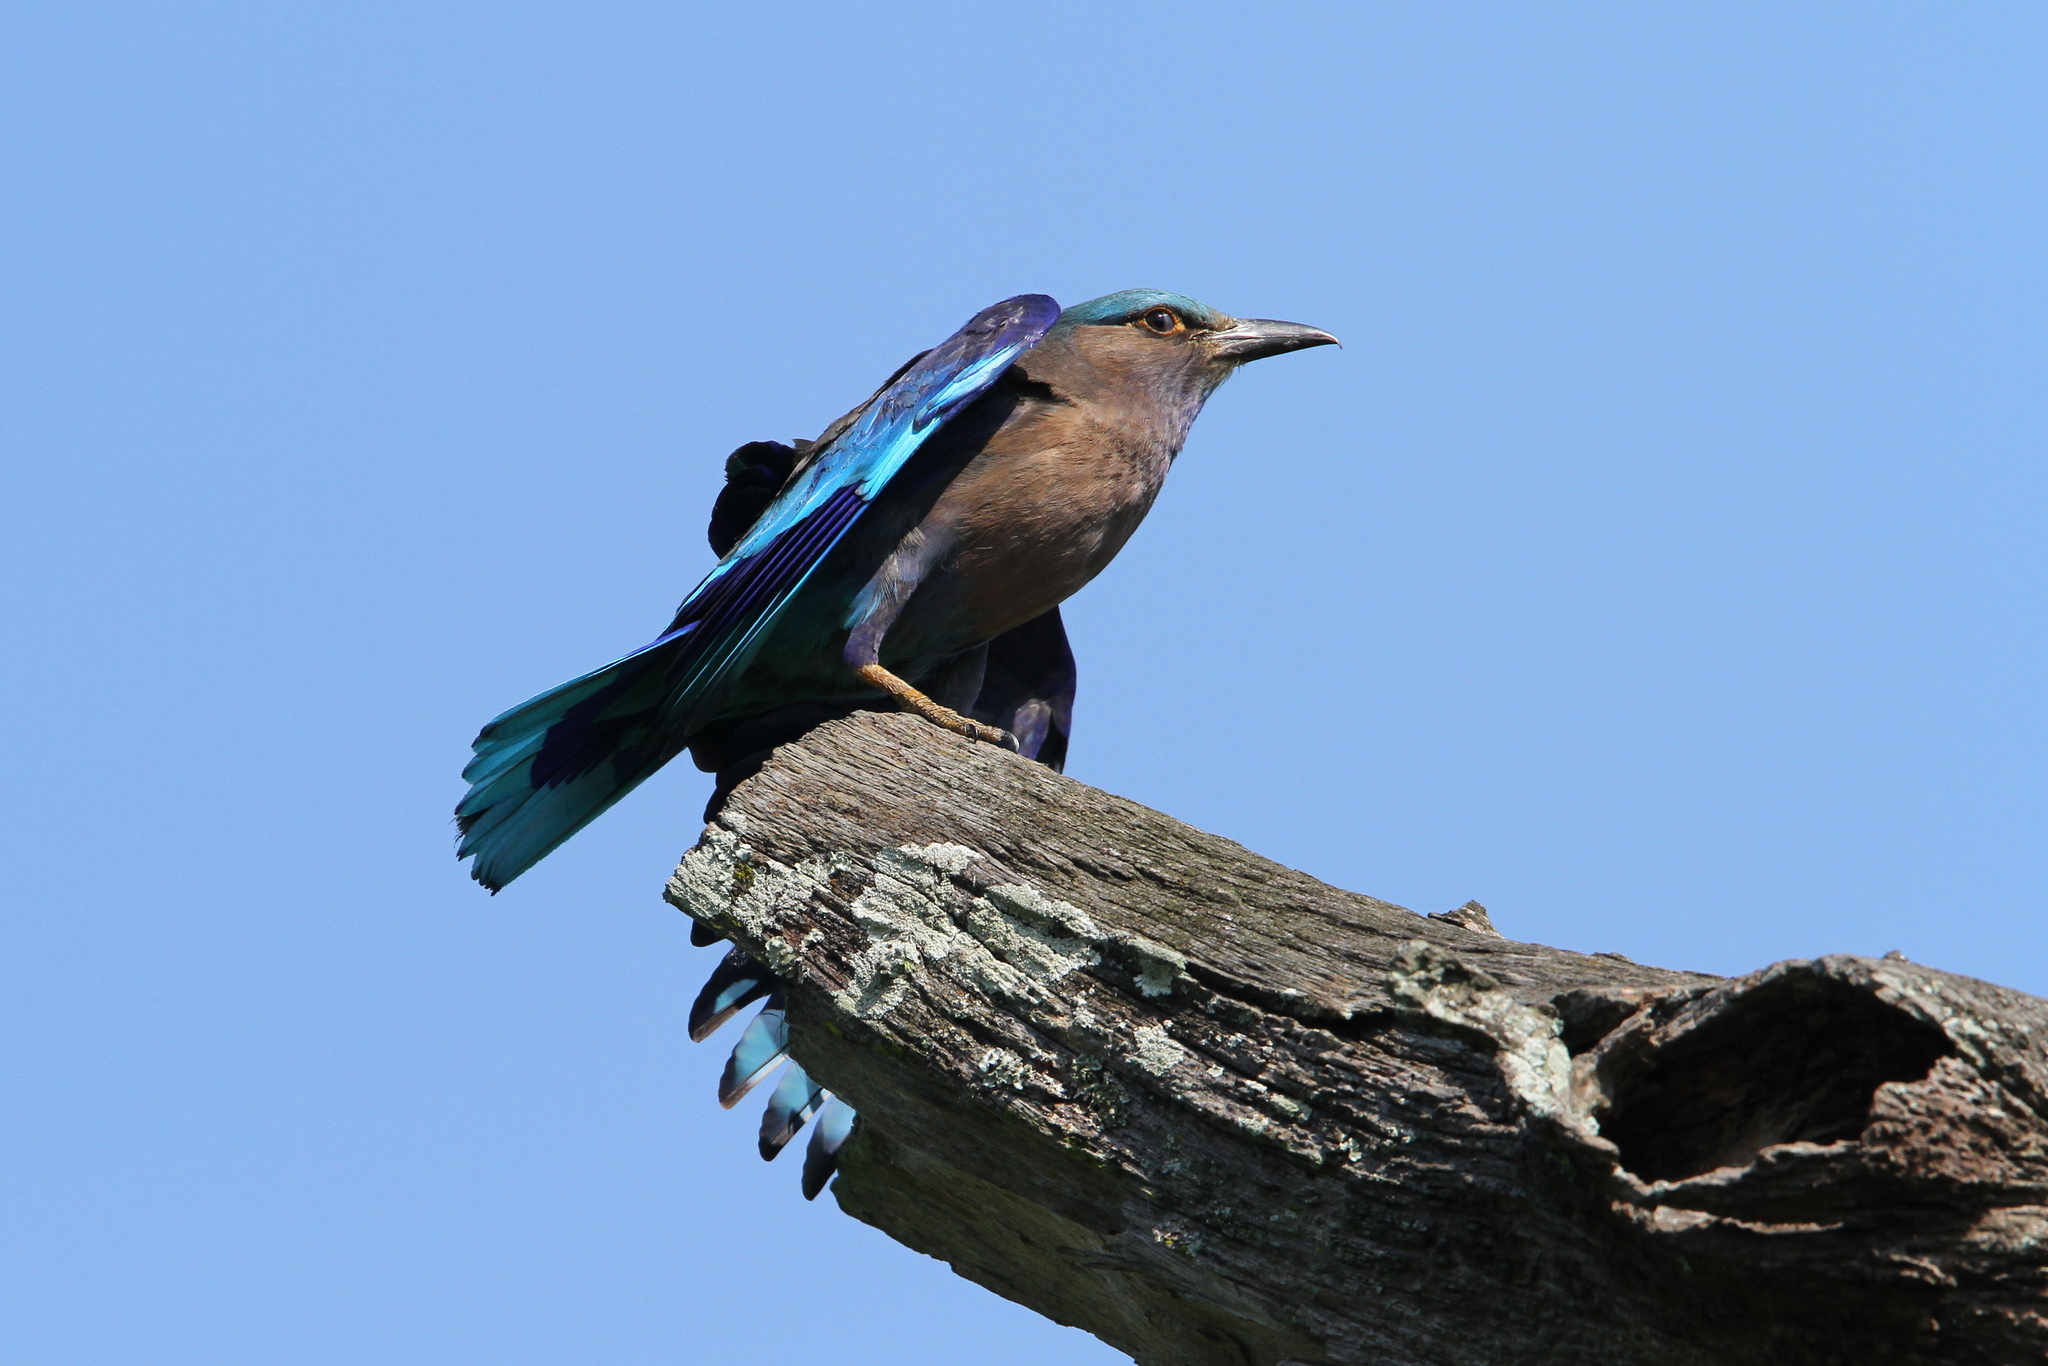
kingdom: Animalia
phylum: Chordata
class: Aves
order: Coraciiformes
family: Coraciidae
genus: Coracias
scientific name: Coracias affinis
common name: Indochinese roller
